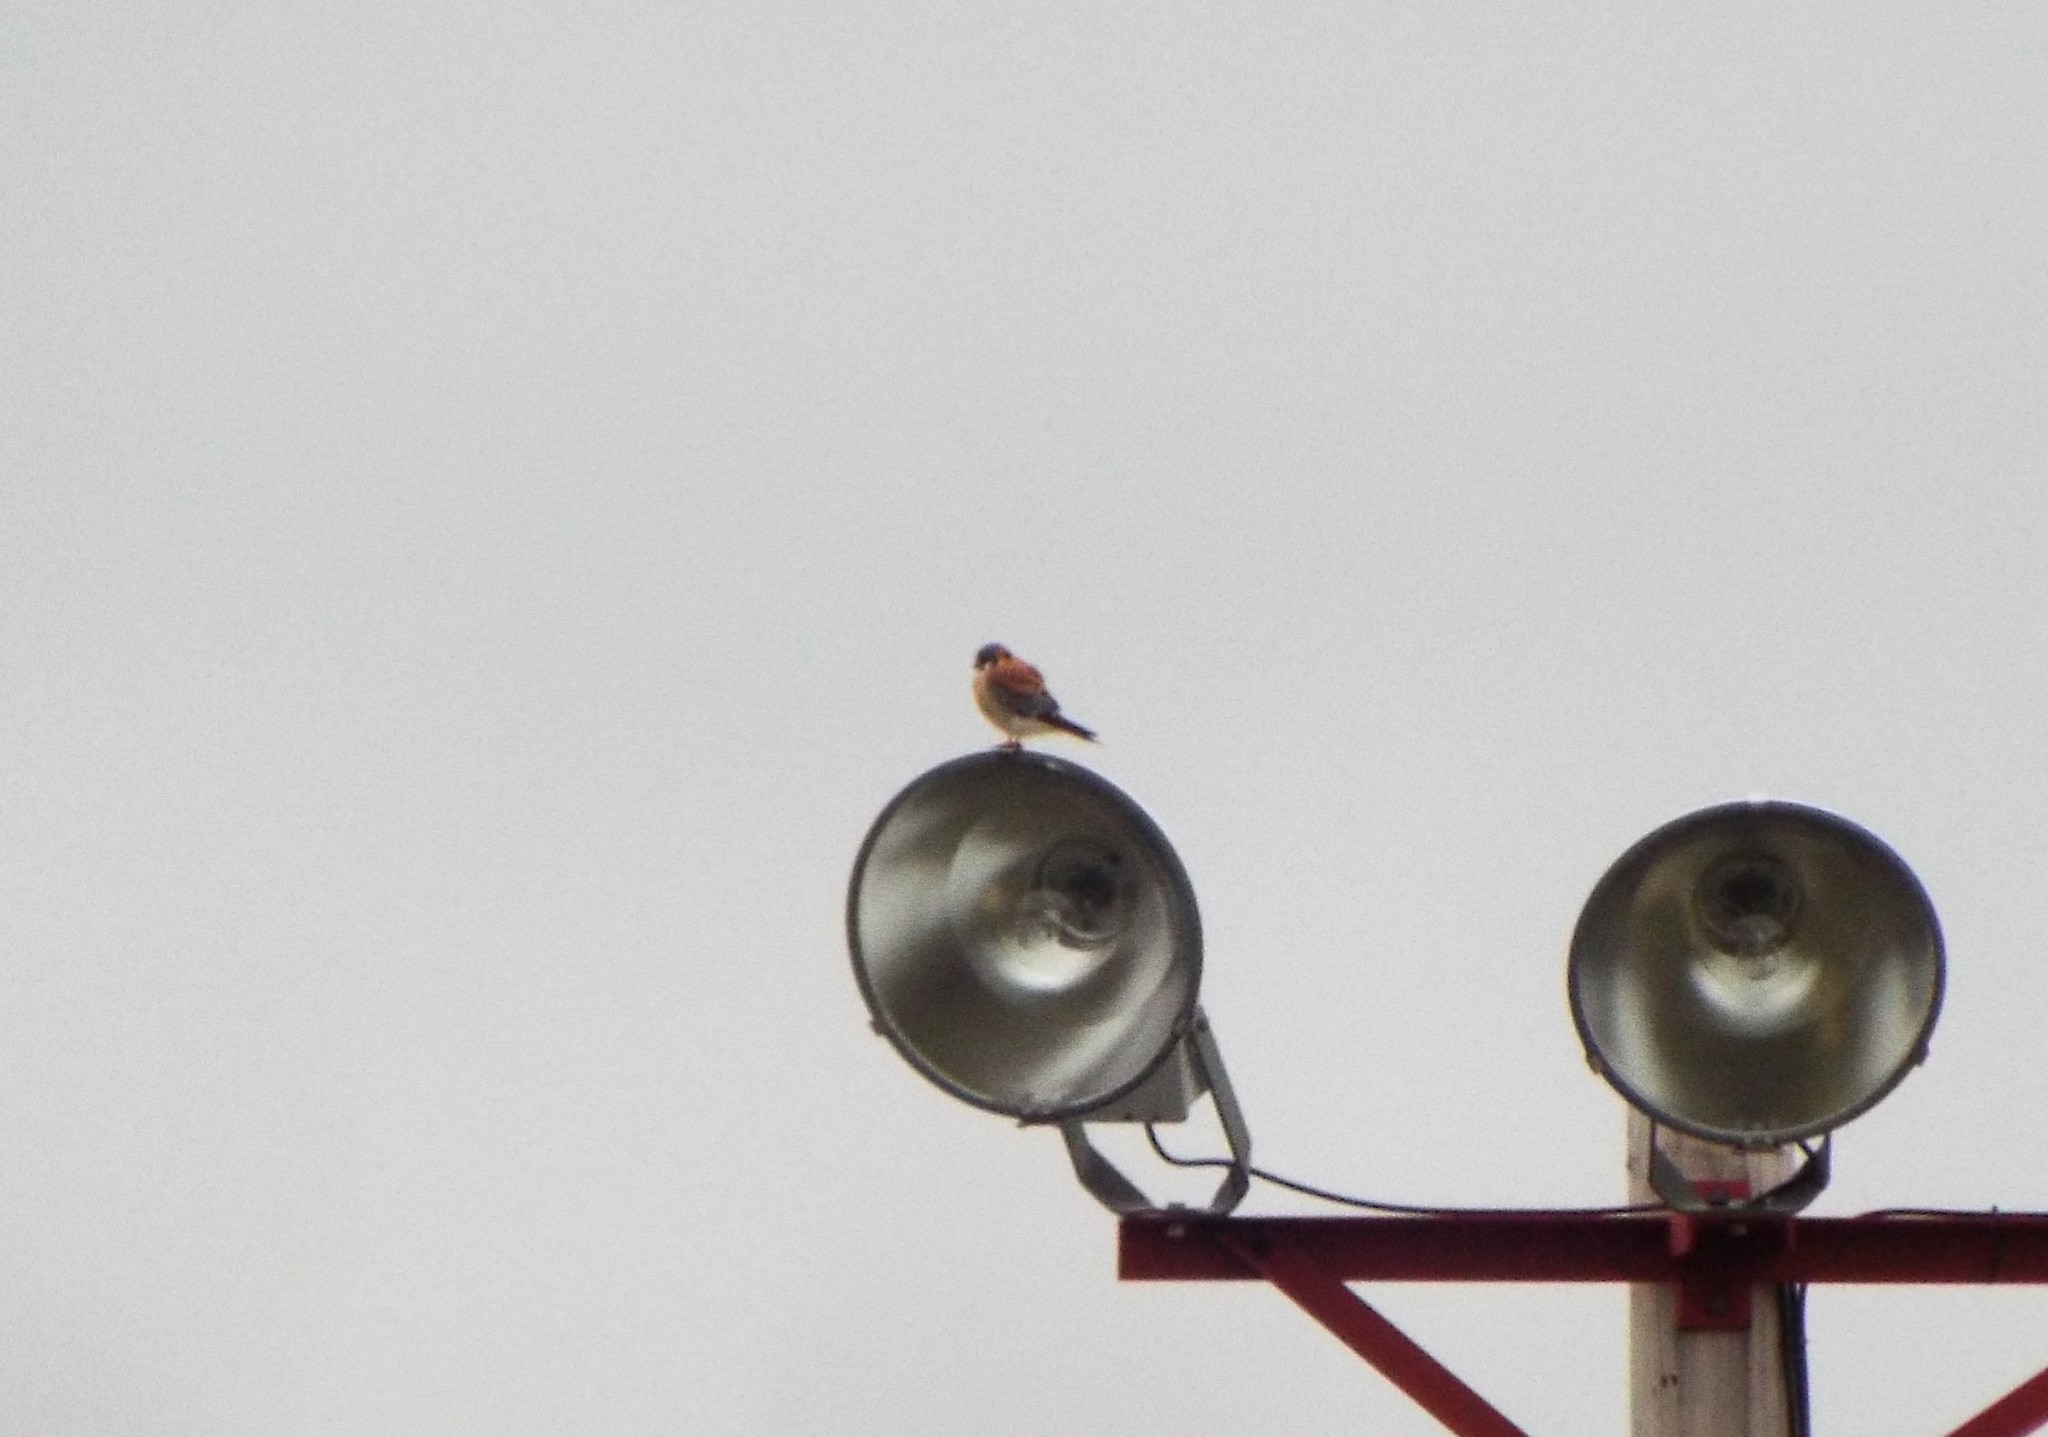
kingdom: Animalia
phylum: Chordata
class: Aves
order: Falconiformes
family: Falconidae
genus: Falco
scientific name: Falco sparverius
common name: American kestrel
